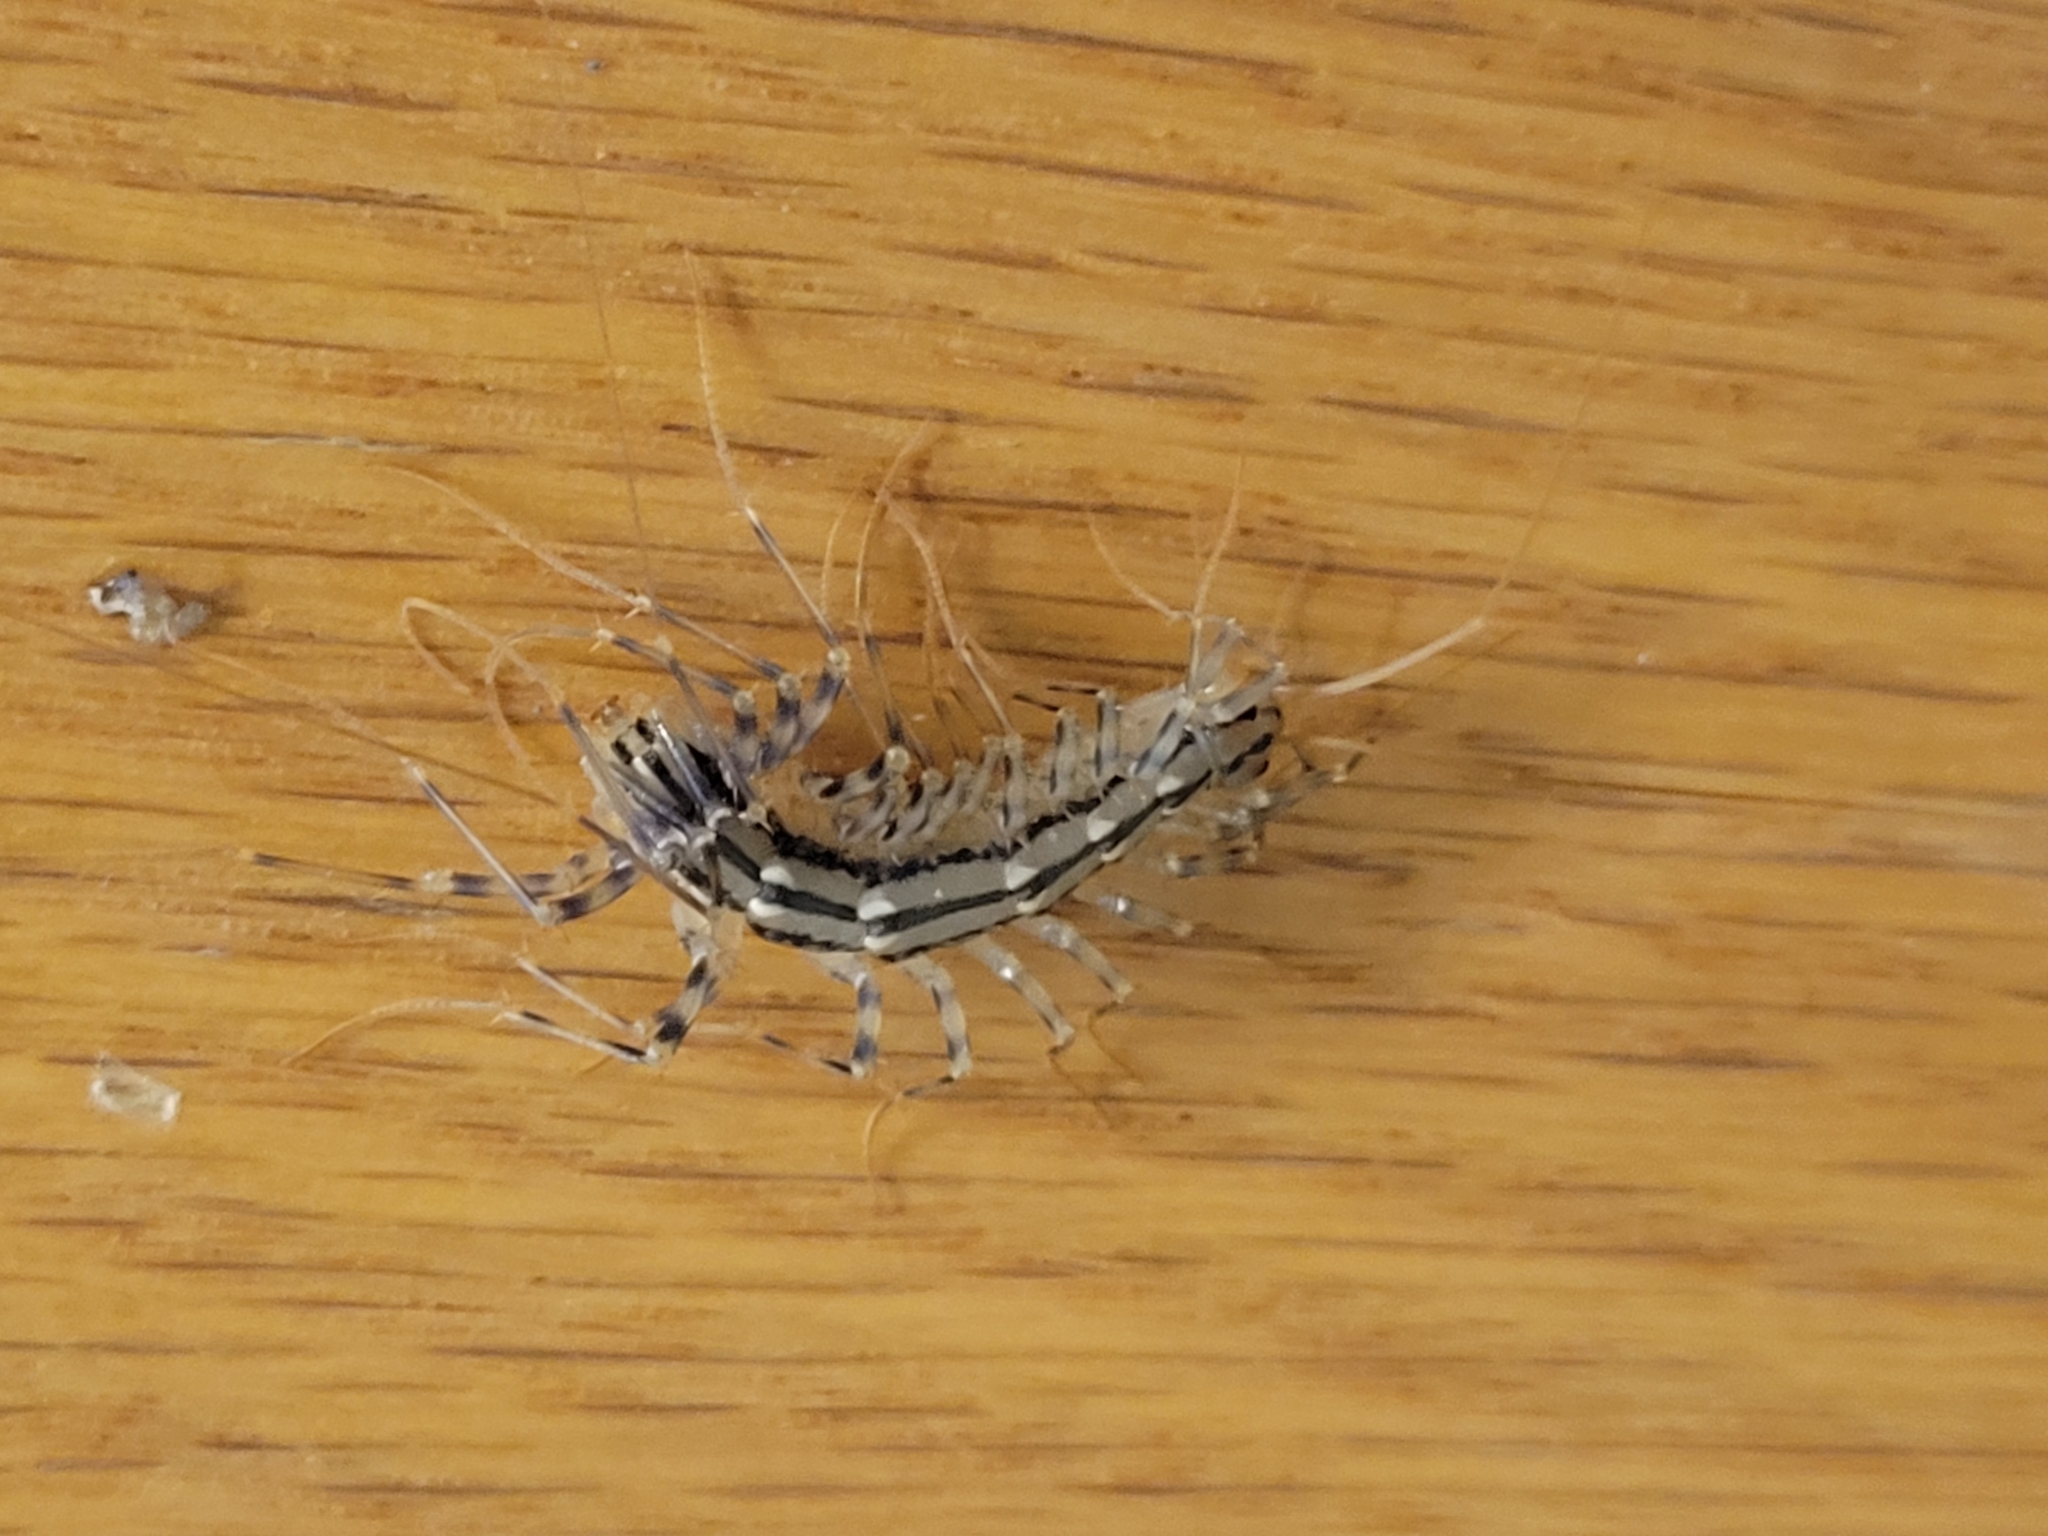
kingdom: Animalia
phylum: Arthropoda
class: Chilopoda
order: Scutigeromorpha
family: Scutigeridae
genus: Scutigera
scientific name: Scutigera coleoptrata
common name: House centipede
